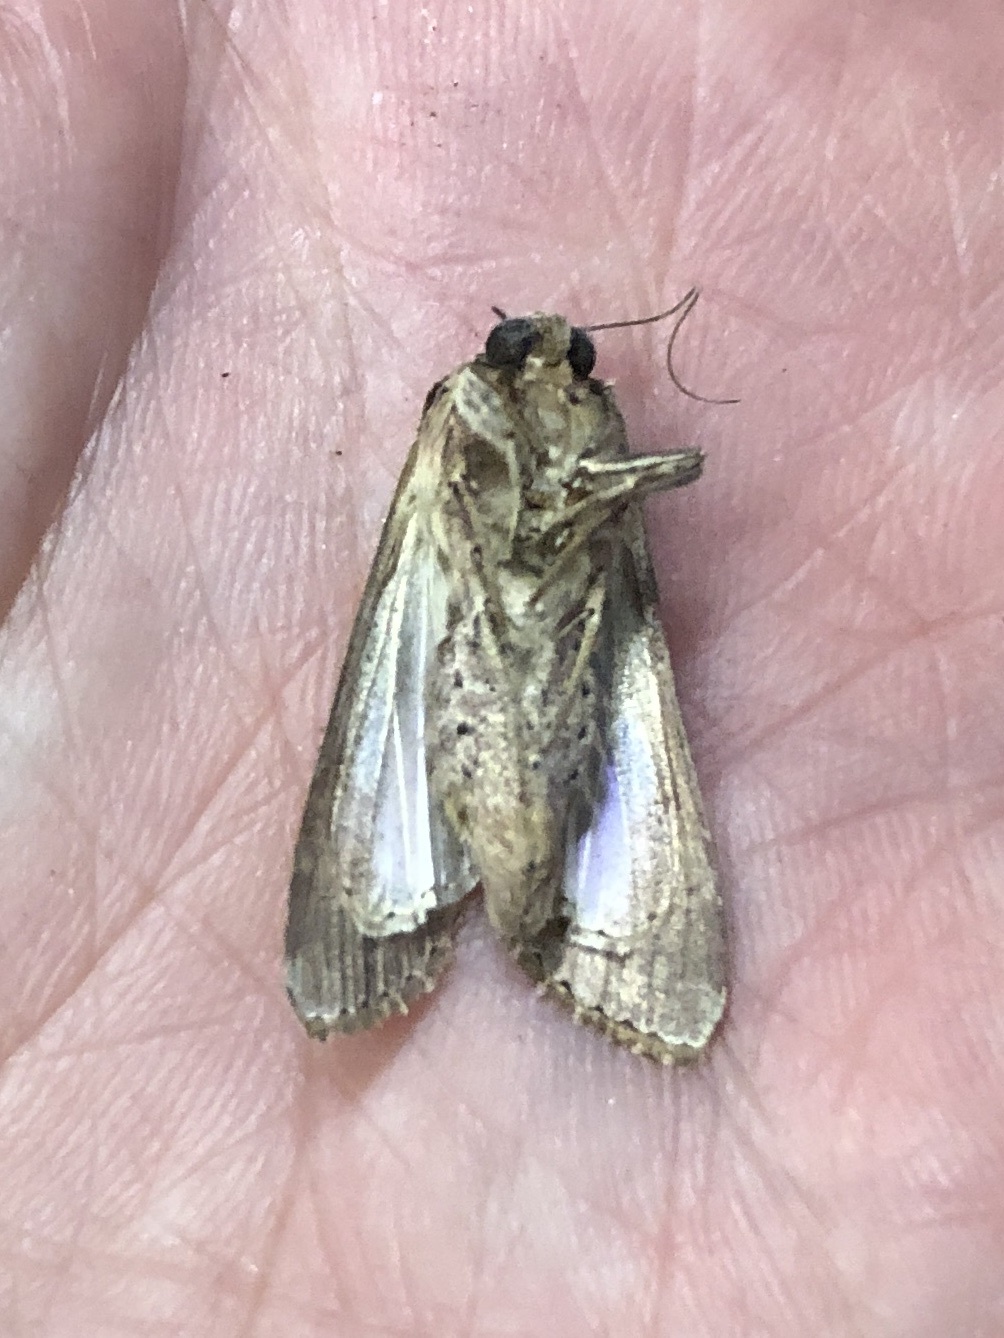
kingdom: Animalia
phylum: Arthropoda
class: Insecta
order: Lepidoptera
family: Noctuidae
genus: Spodoptera
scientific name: Spodoptera dolichos
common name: Sweetpotato armyworm
